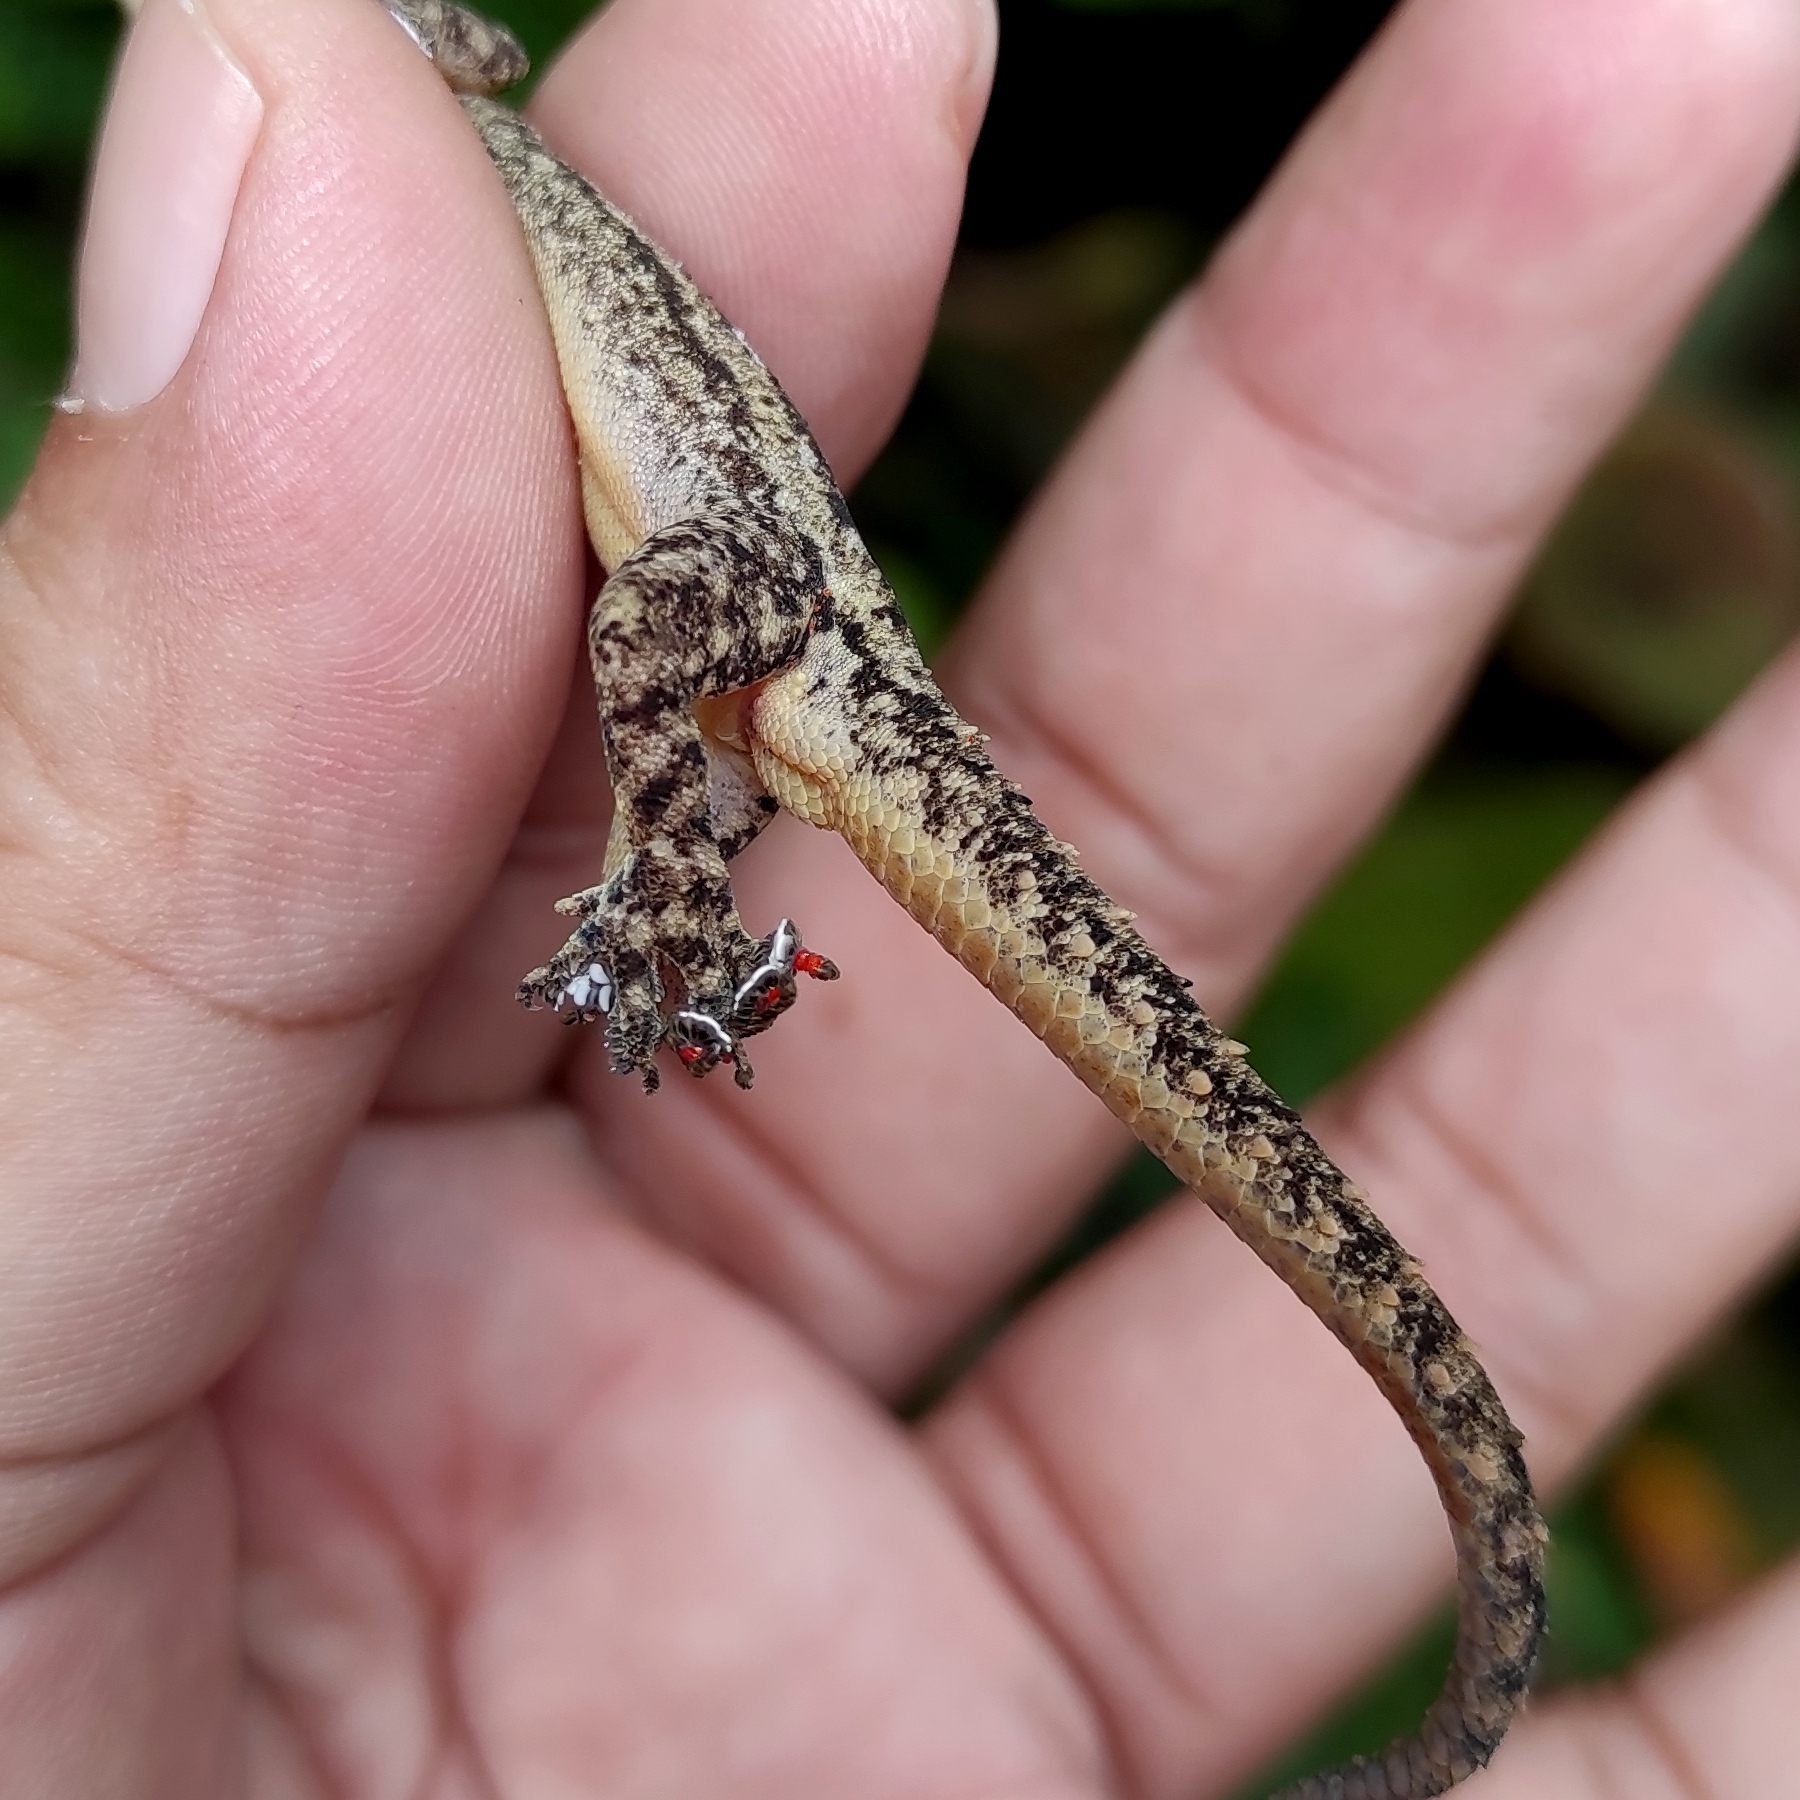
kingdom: Animalia
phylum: Chordata
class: Squamata
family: Gekkonidae
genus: Hemidactylus
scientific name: Hemidactylus frenatus
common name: Common house gecko
